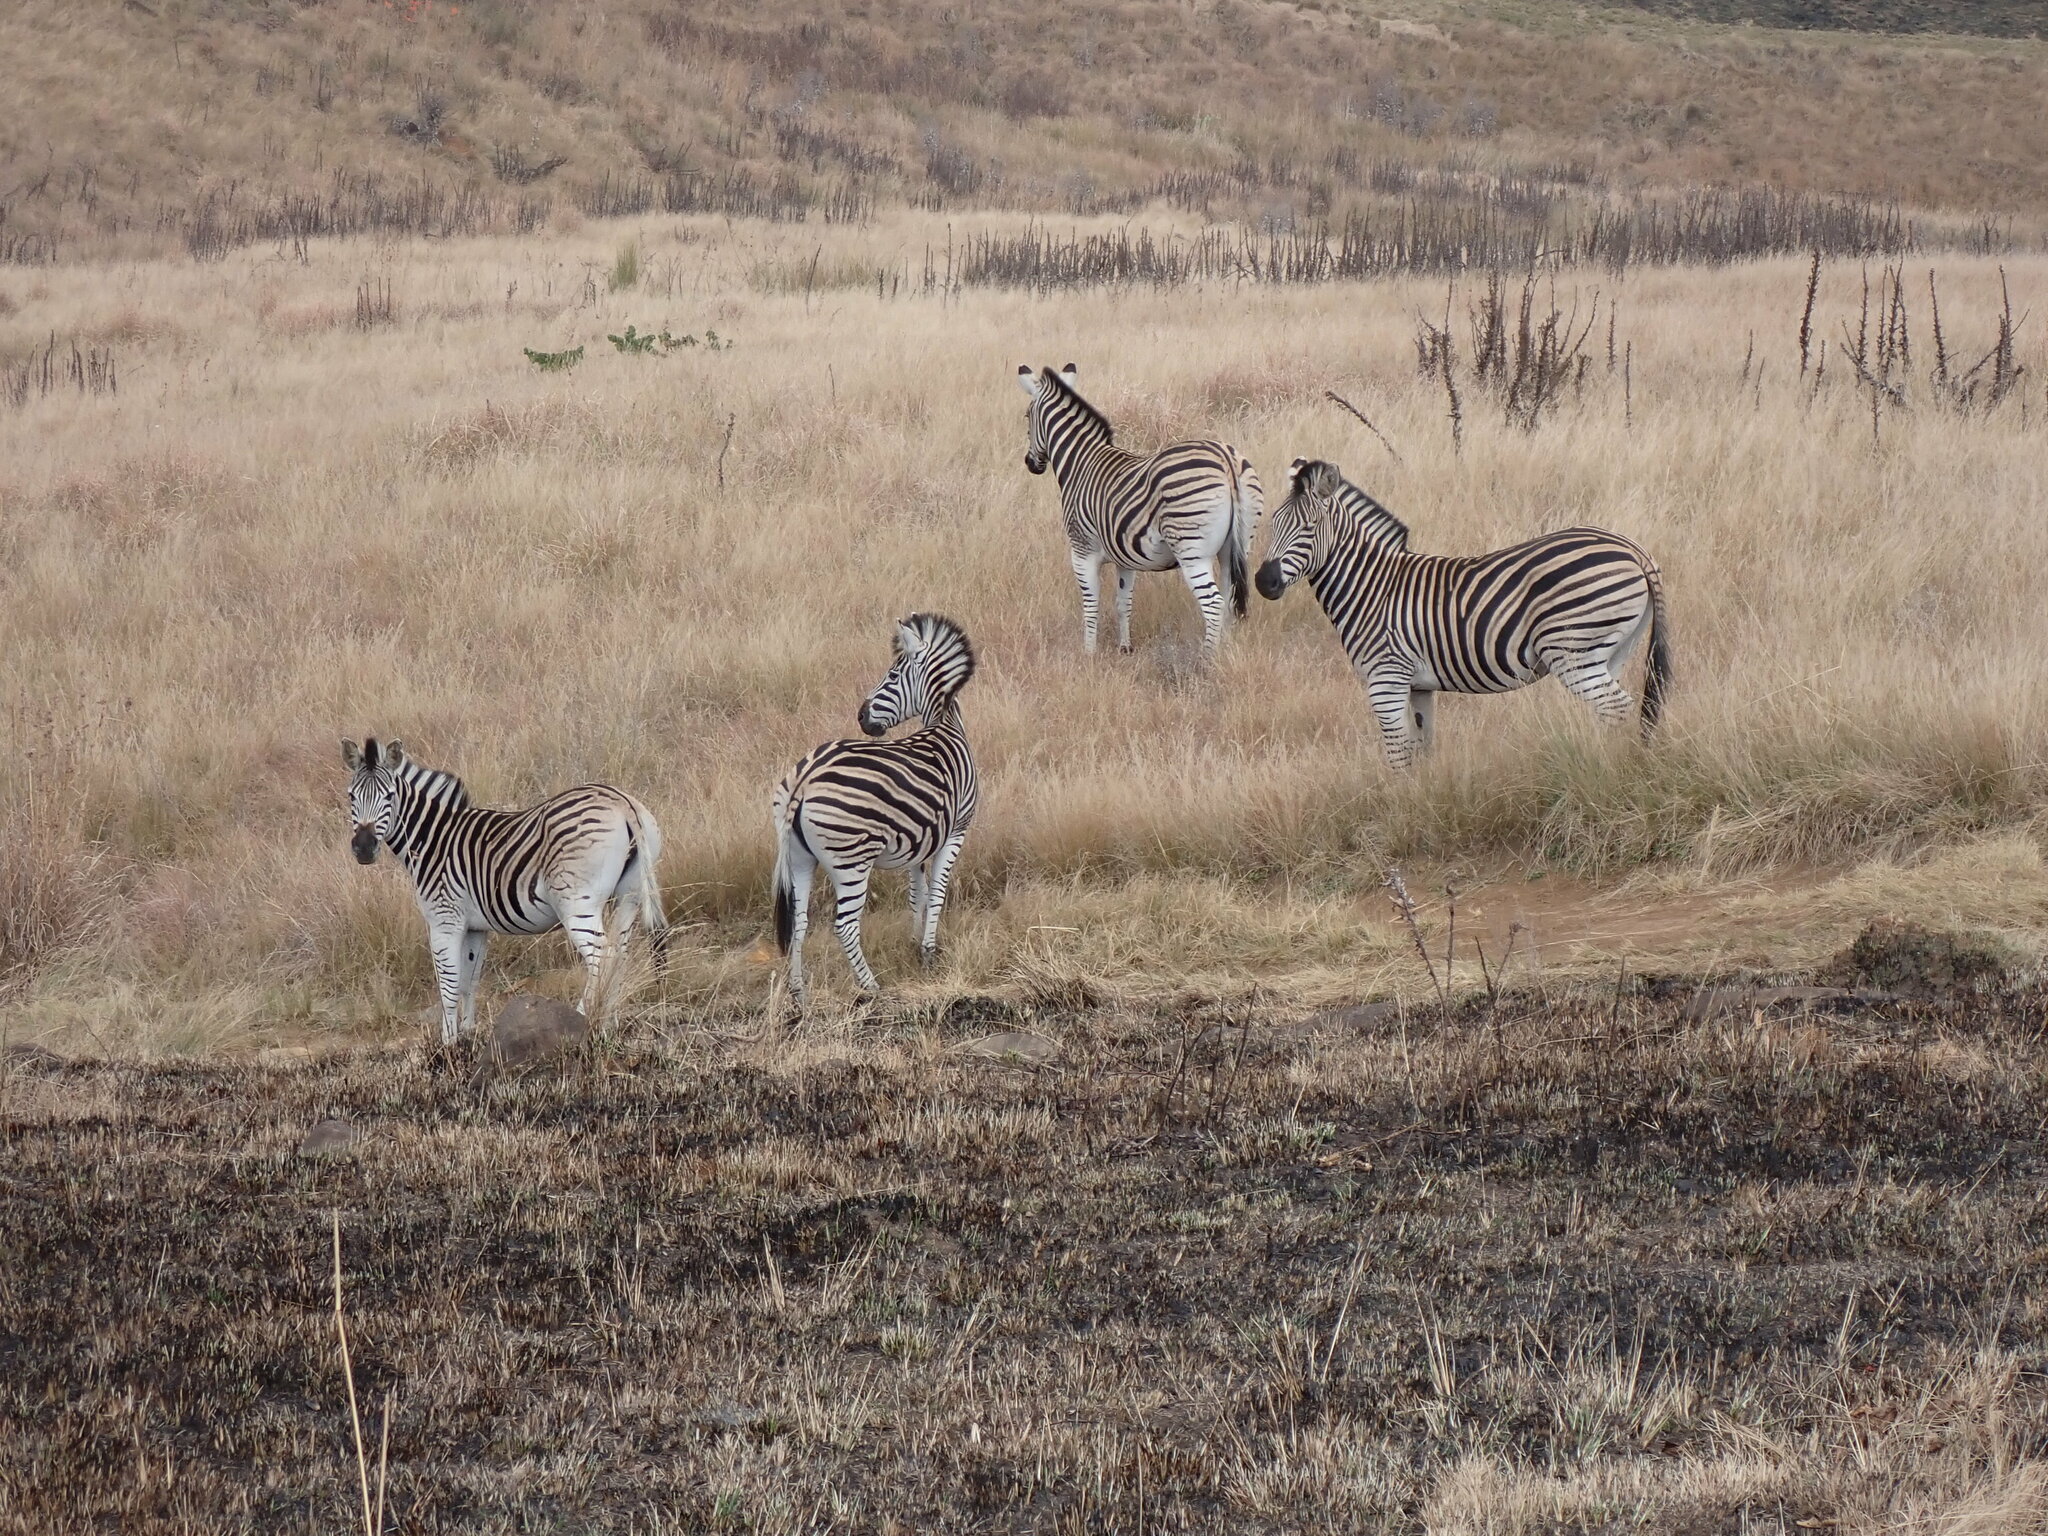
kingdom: Animalia
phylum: Chordata
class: Mammalia
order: Perissodactyla
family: Equidae
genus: Equus
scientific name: Equus quagga
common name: Plains zebra
